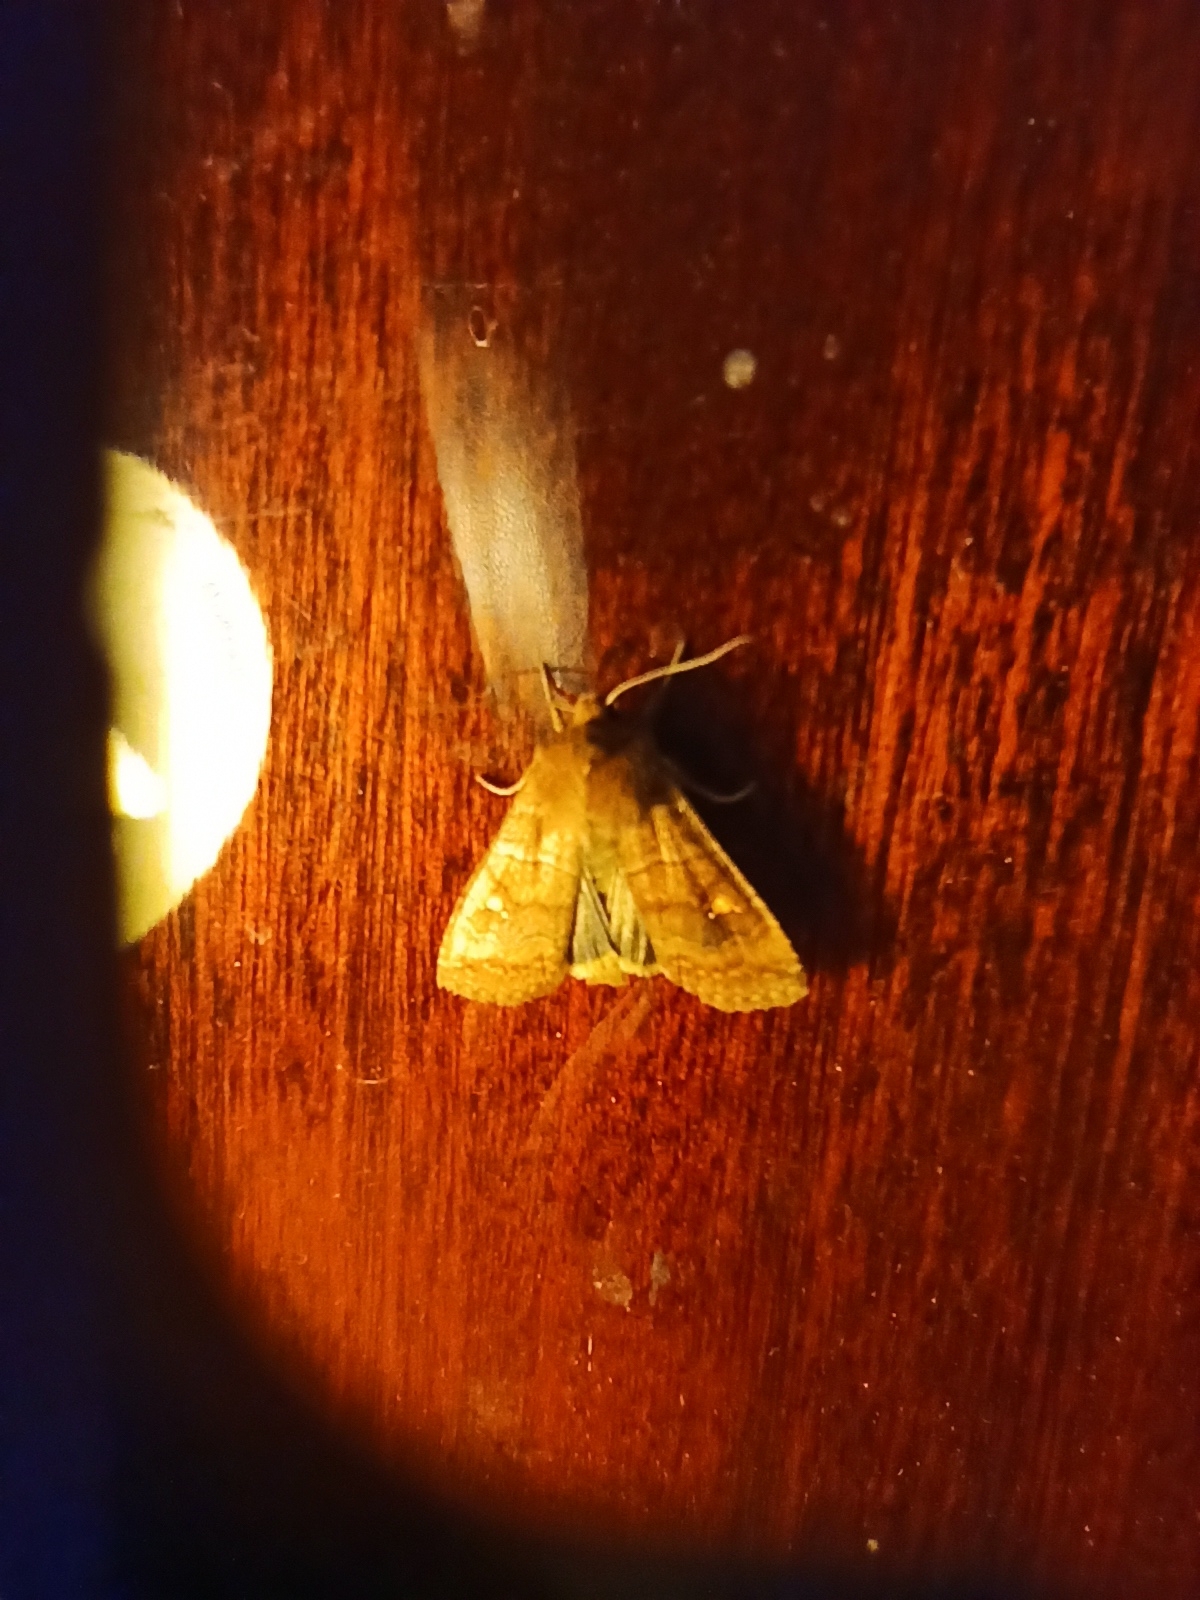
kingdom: Animalia
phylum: Arthropoda
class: Insecta
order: Lepidoptera
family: Noctuidae
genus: Eupsilia
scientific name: Eupsilia transversa
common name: Satellite
